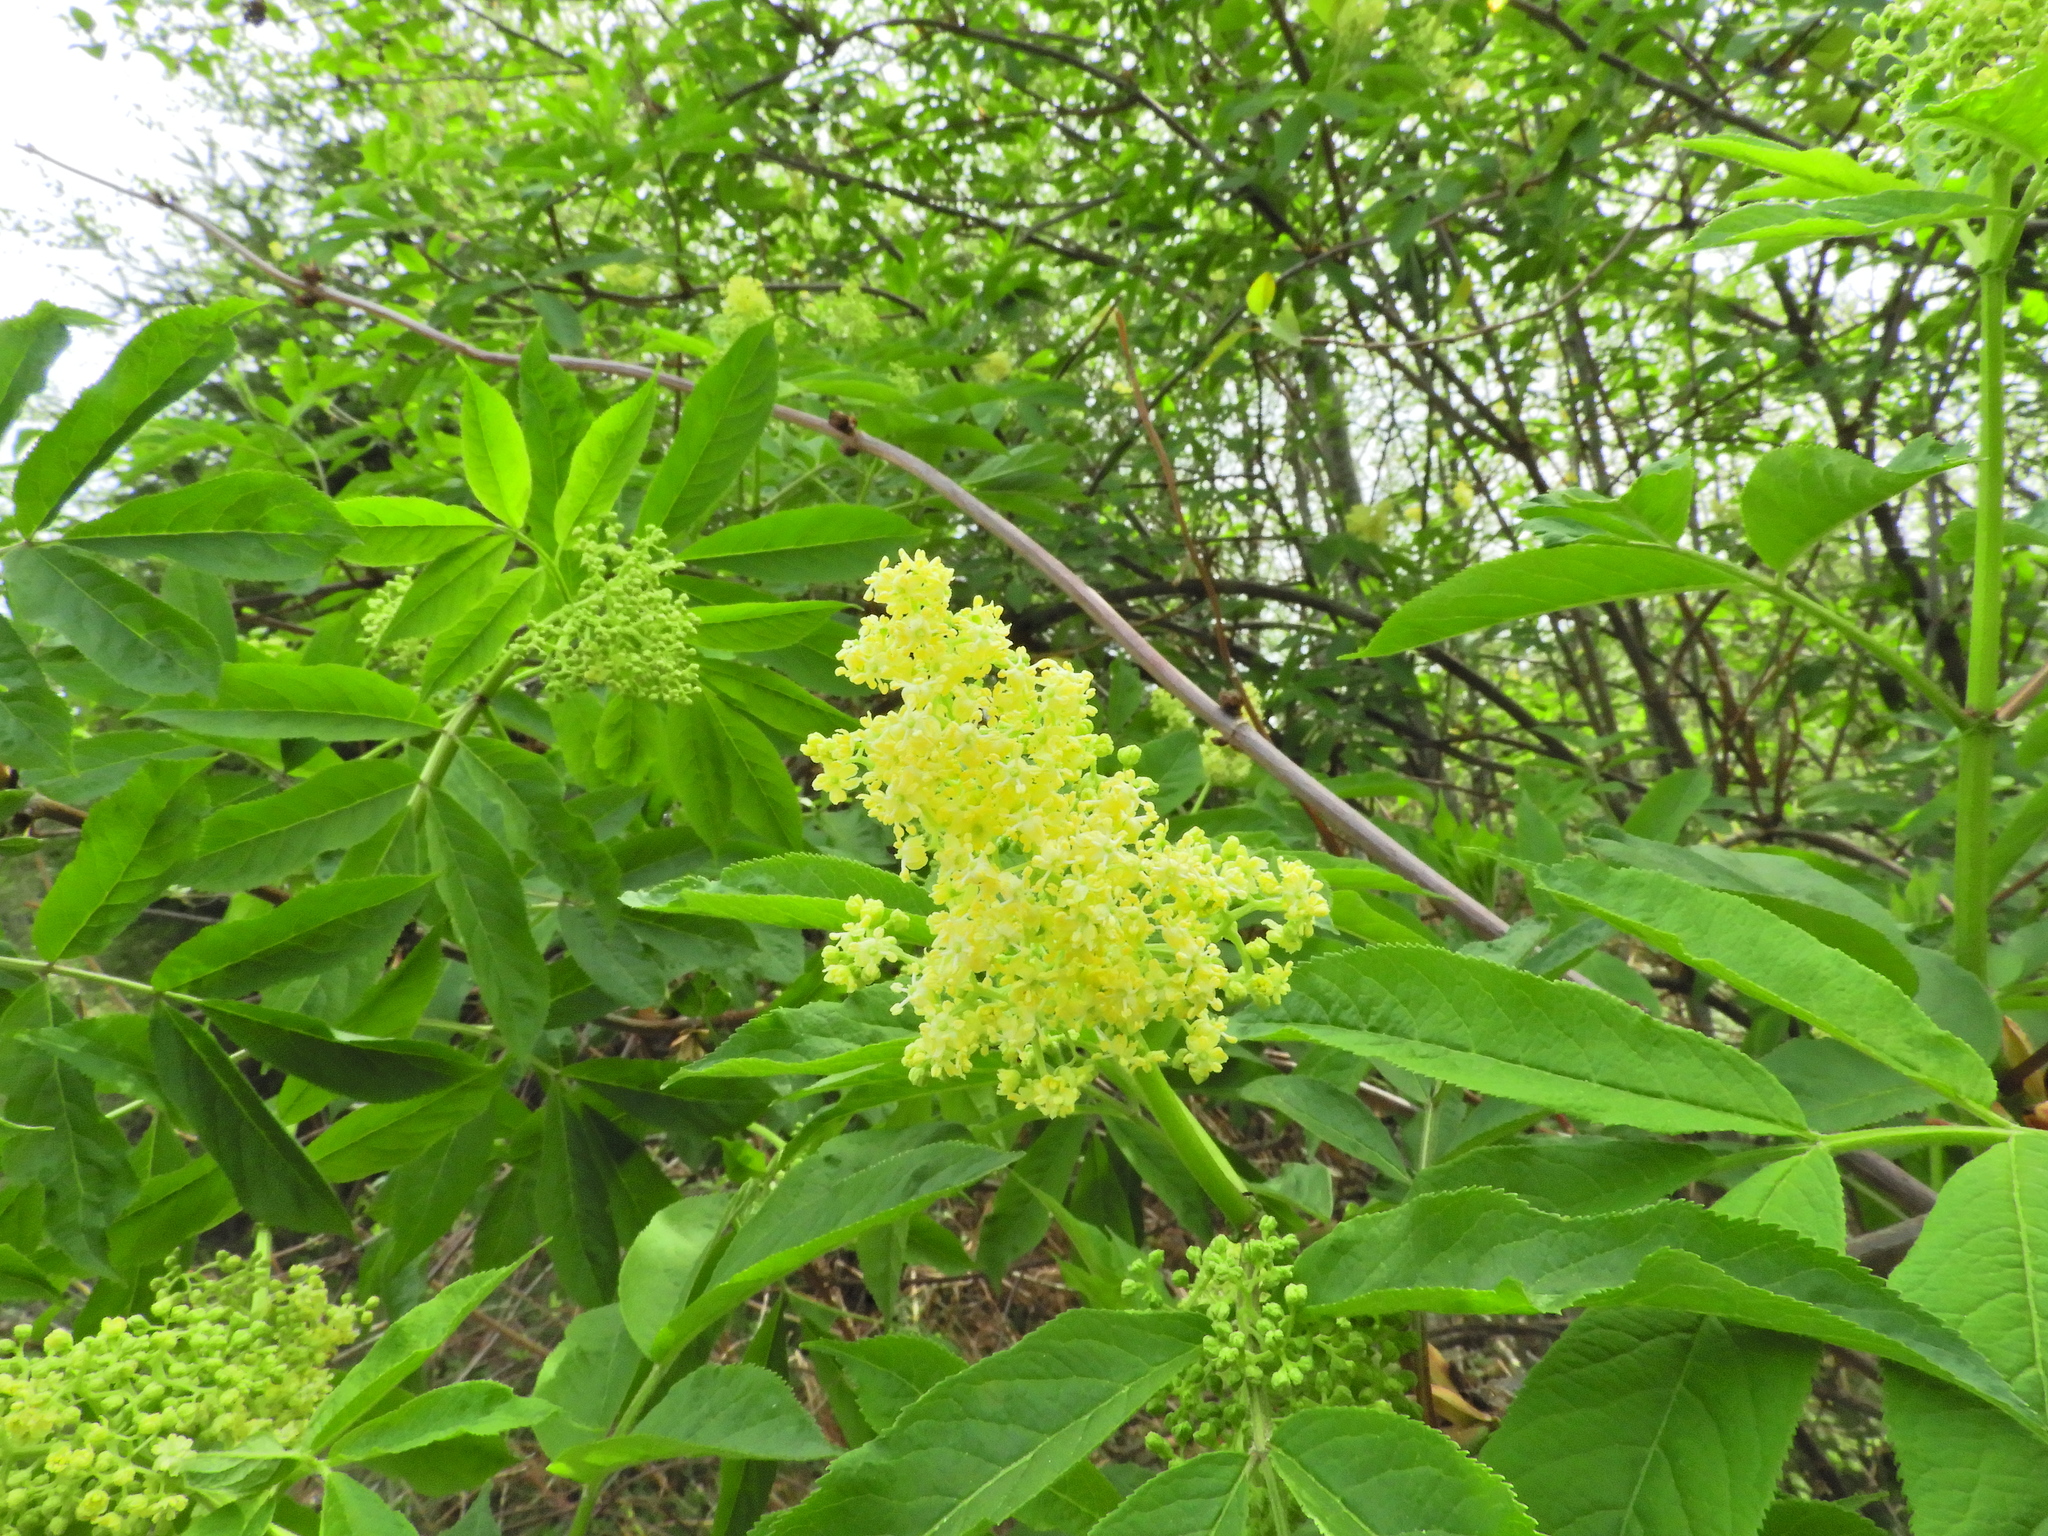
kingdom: Plantae
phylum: Tracheophyta
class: Magnoliopsida
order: Dipsacales
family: Viburnaceae
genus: Sambucus
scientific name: Sambucus racemosa
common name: Red-berried elder
